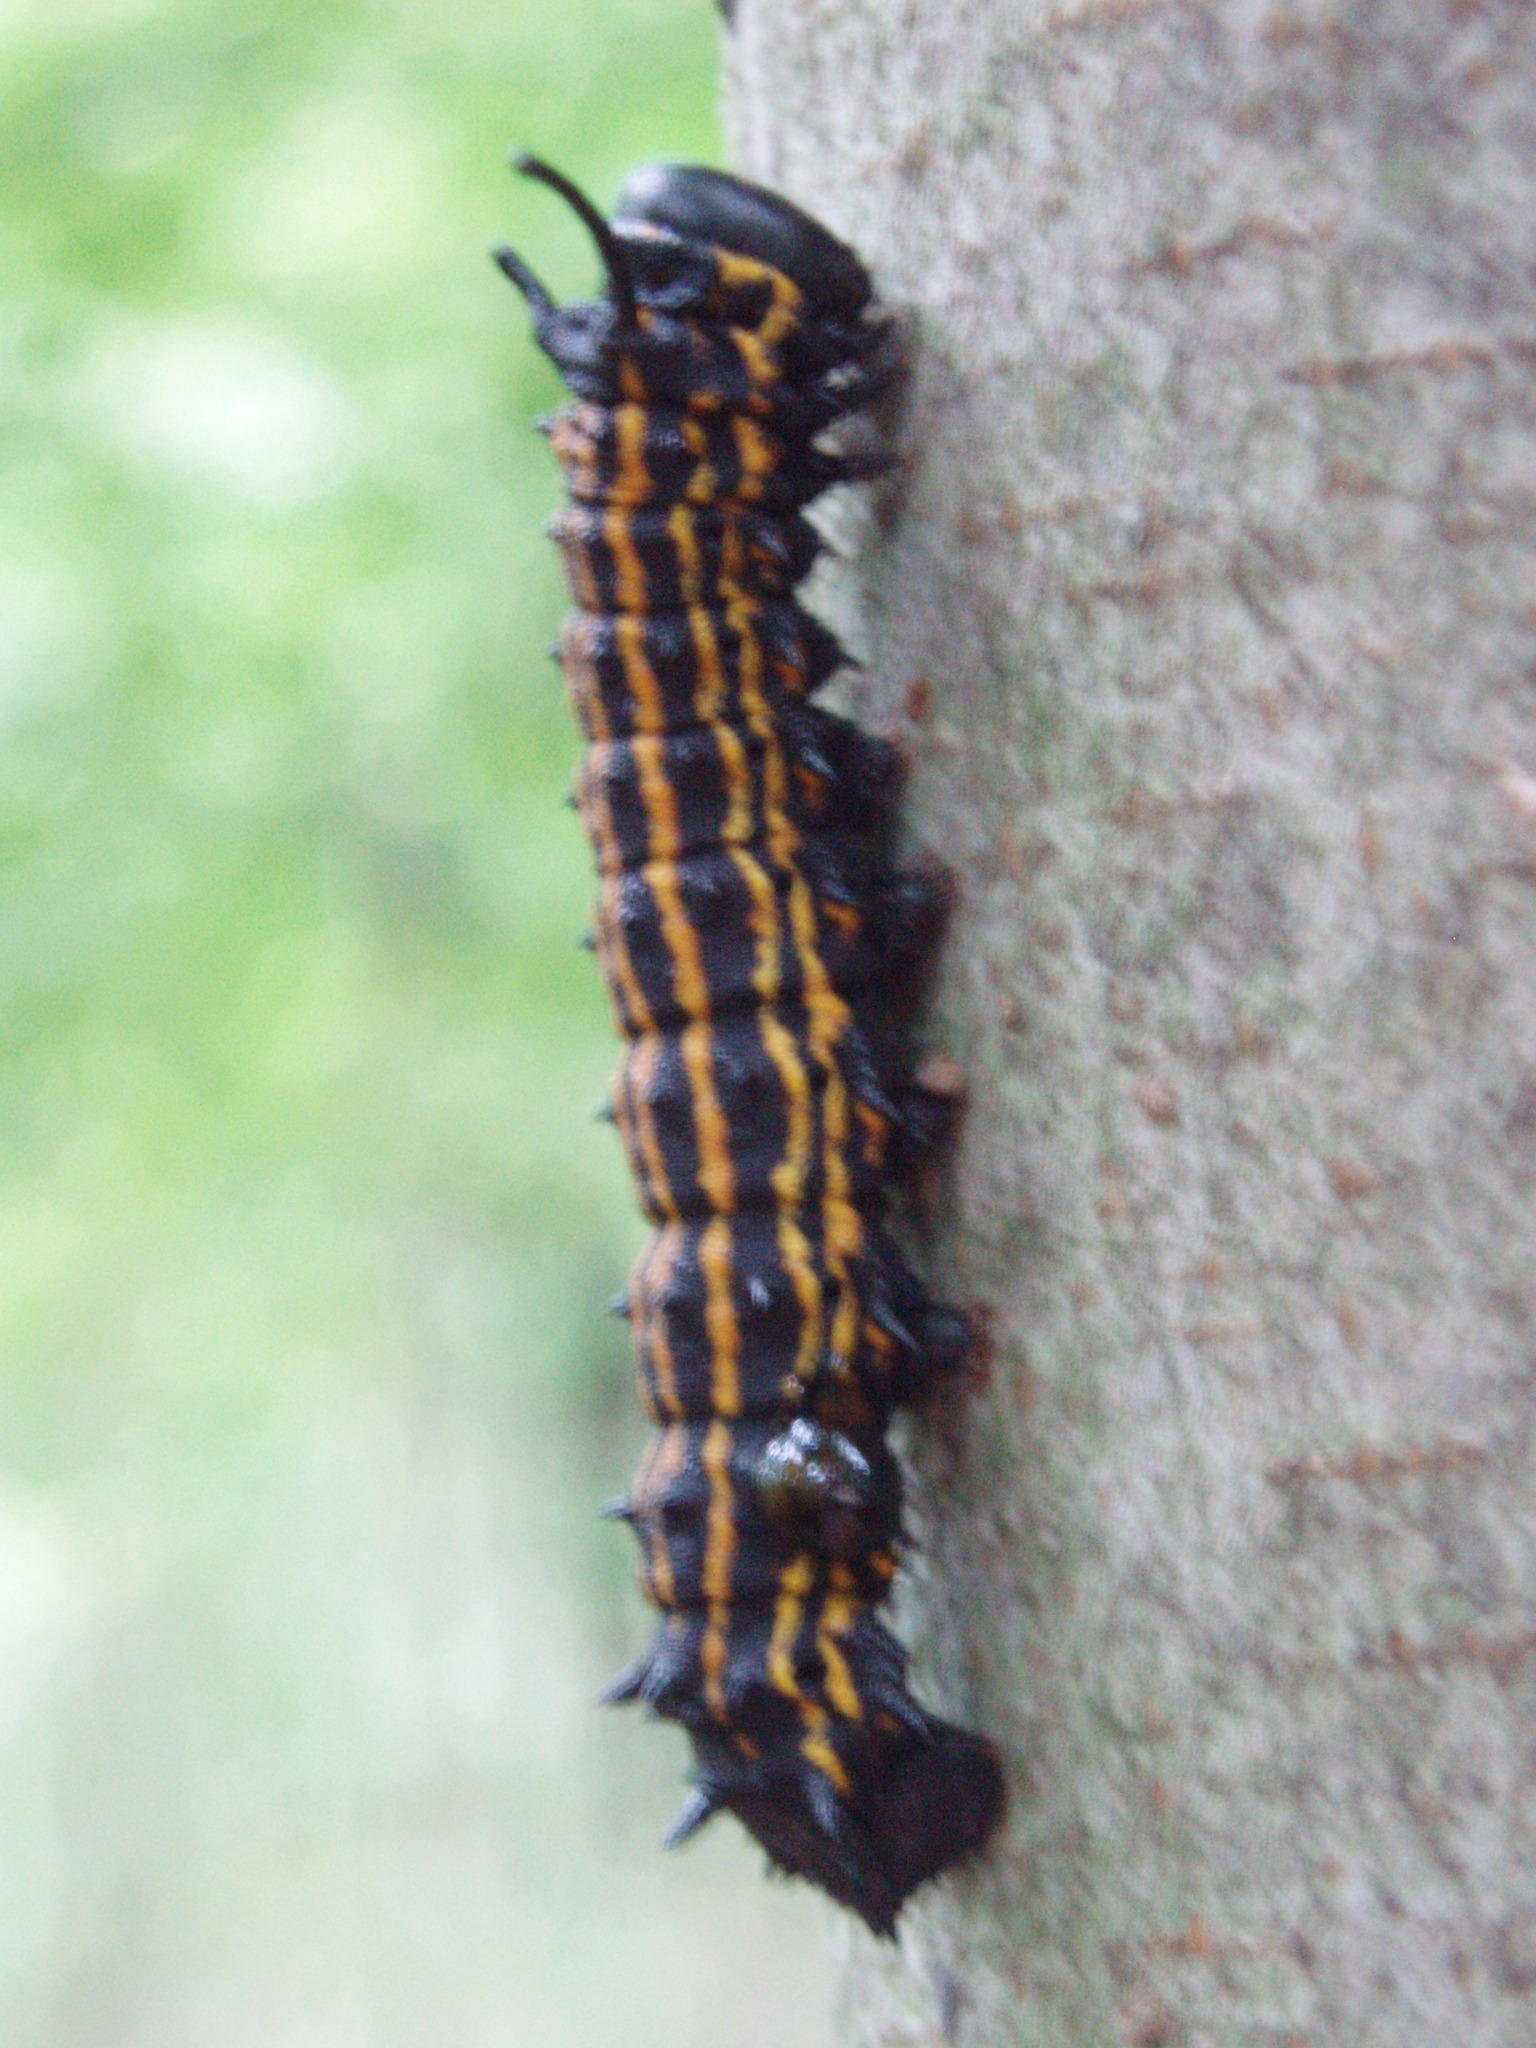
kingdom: Animalia
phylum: Arthropoda
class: Insecta
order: Lepidoptera
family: Saturniidae
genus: Anisota
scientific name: Anisota senatoria
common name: Orange-striped oakworm moth
